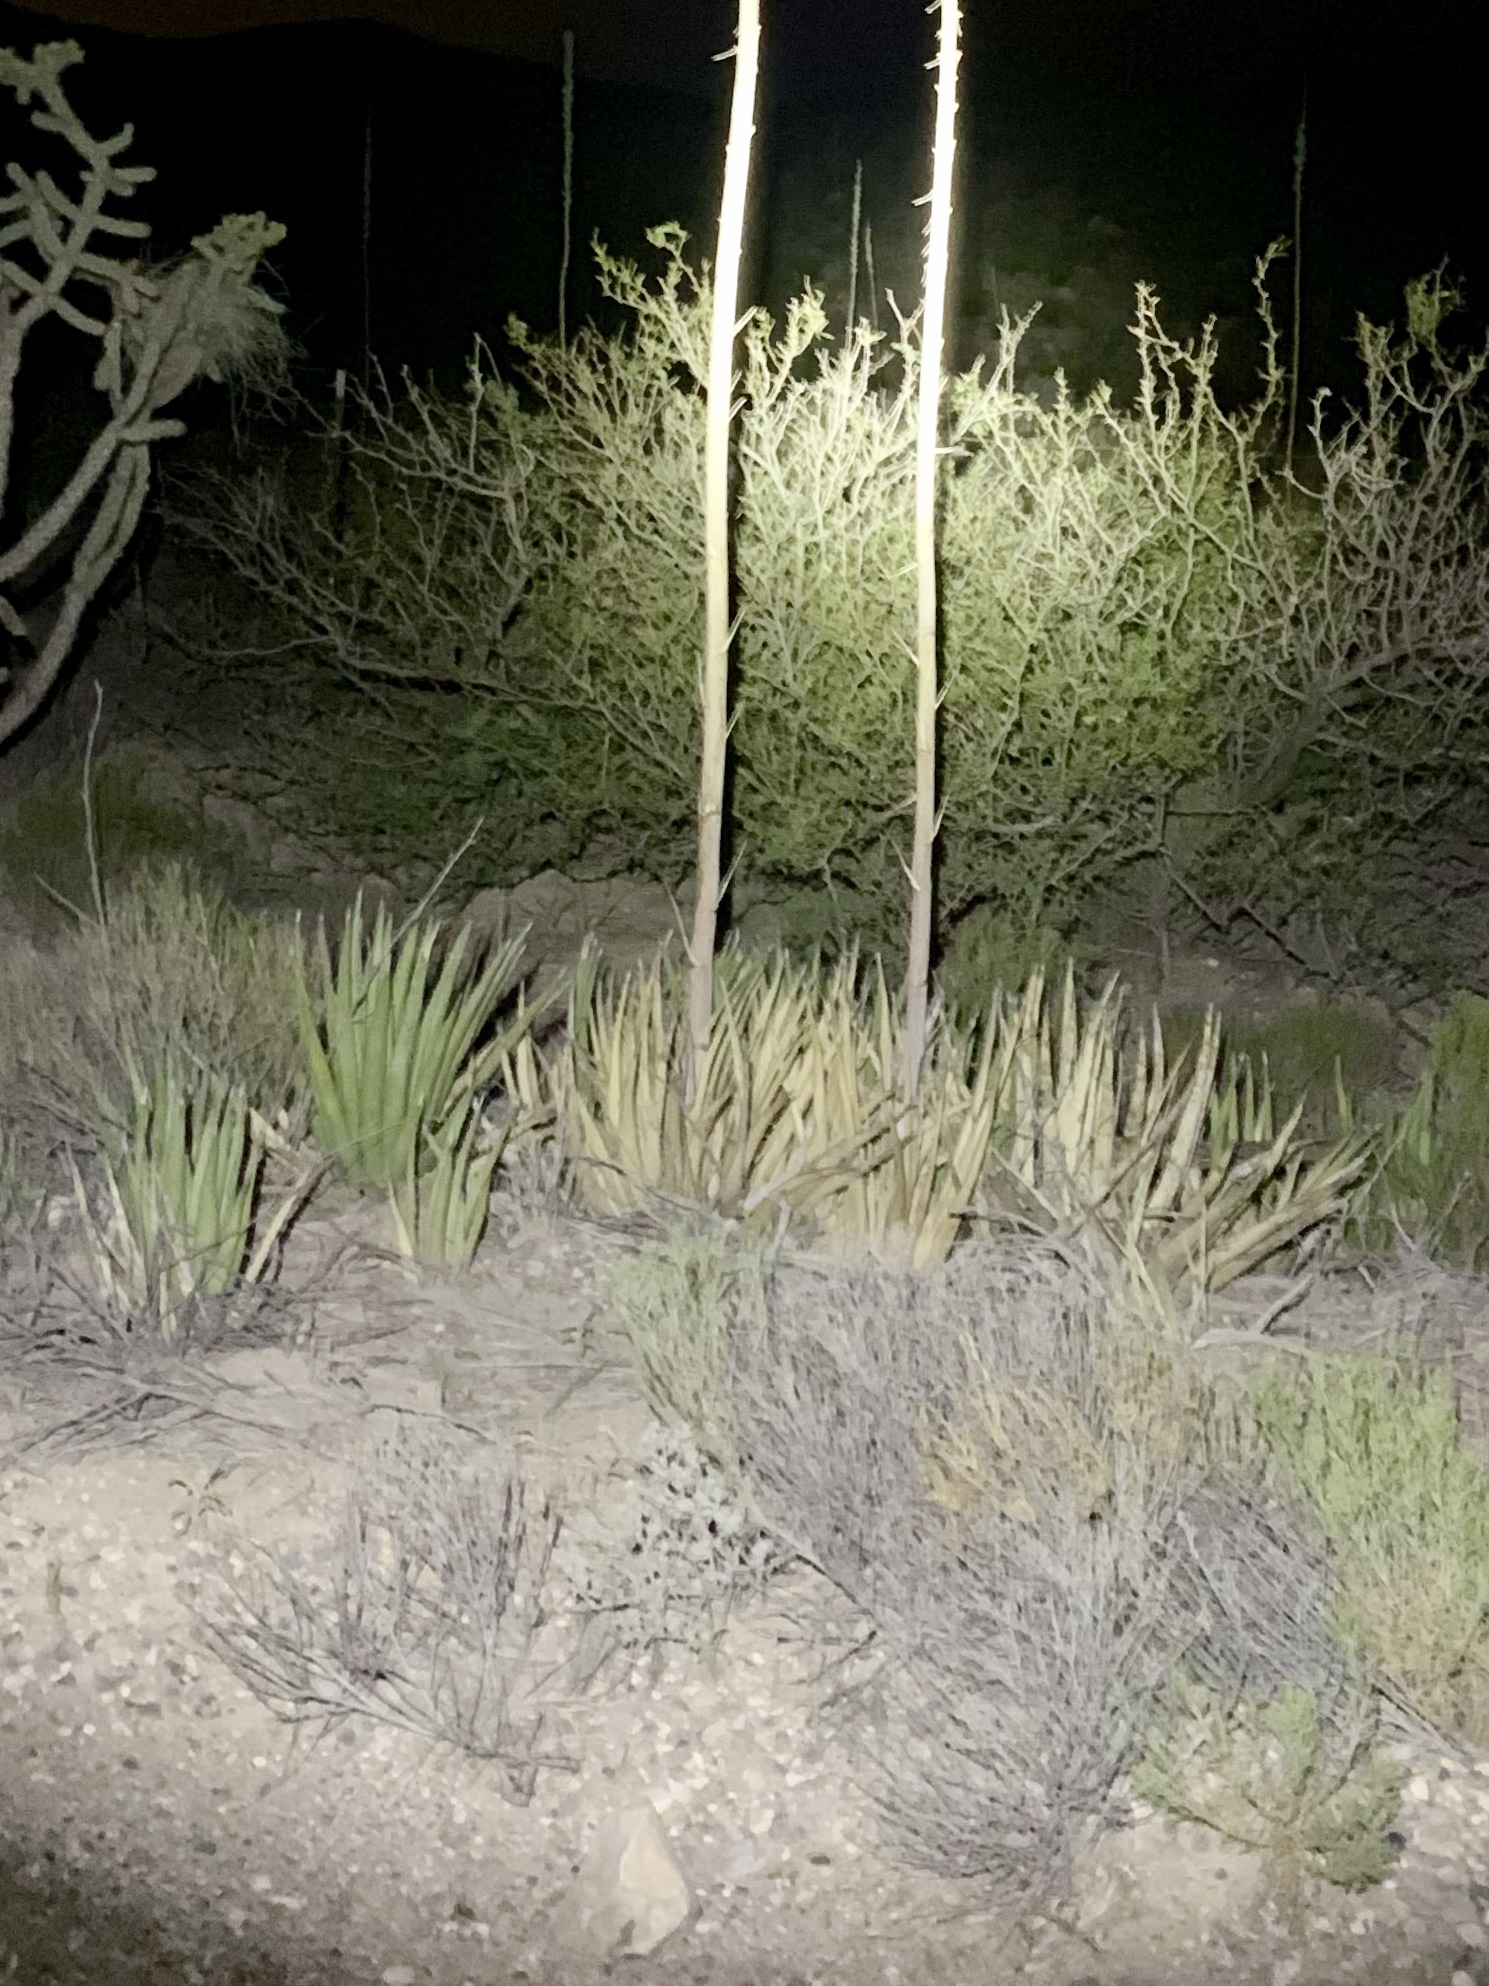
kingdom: Plantae
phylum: Tracheophyta
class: Liliopsida
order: Asparagales
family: Asparagaceae
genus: Agave
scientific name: Agave lechuguilla
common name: Lecheguilla agave
